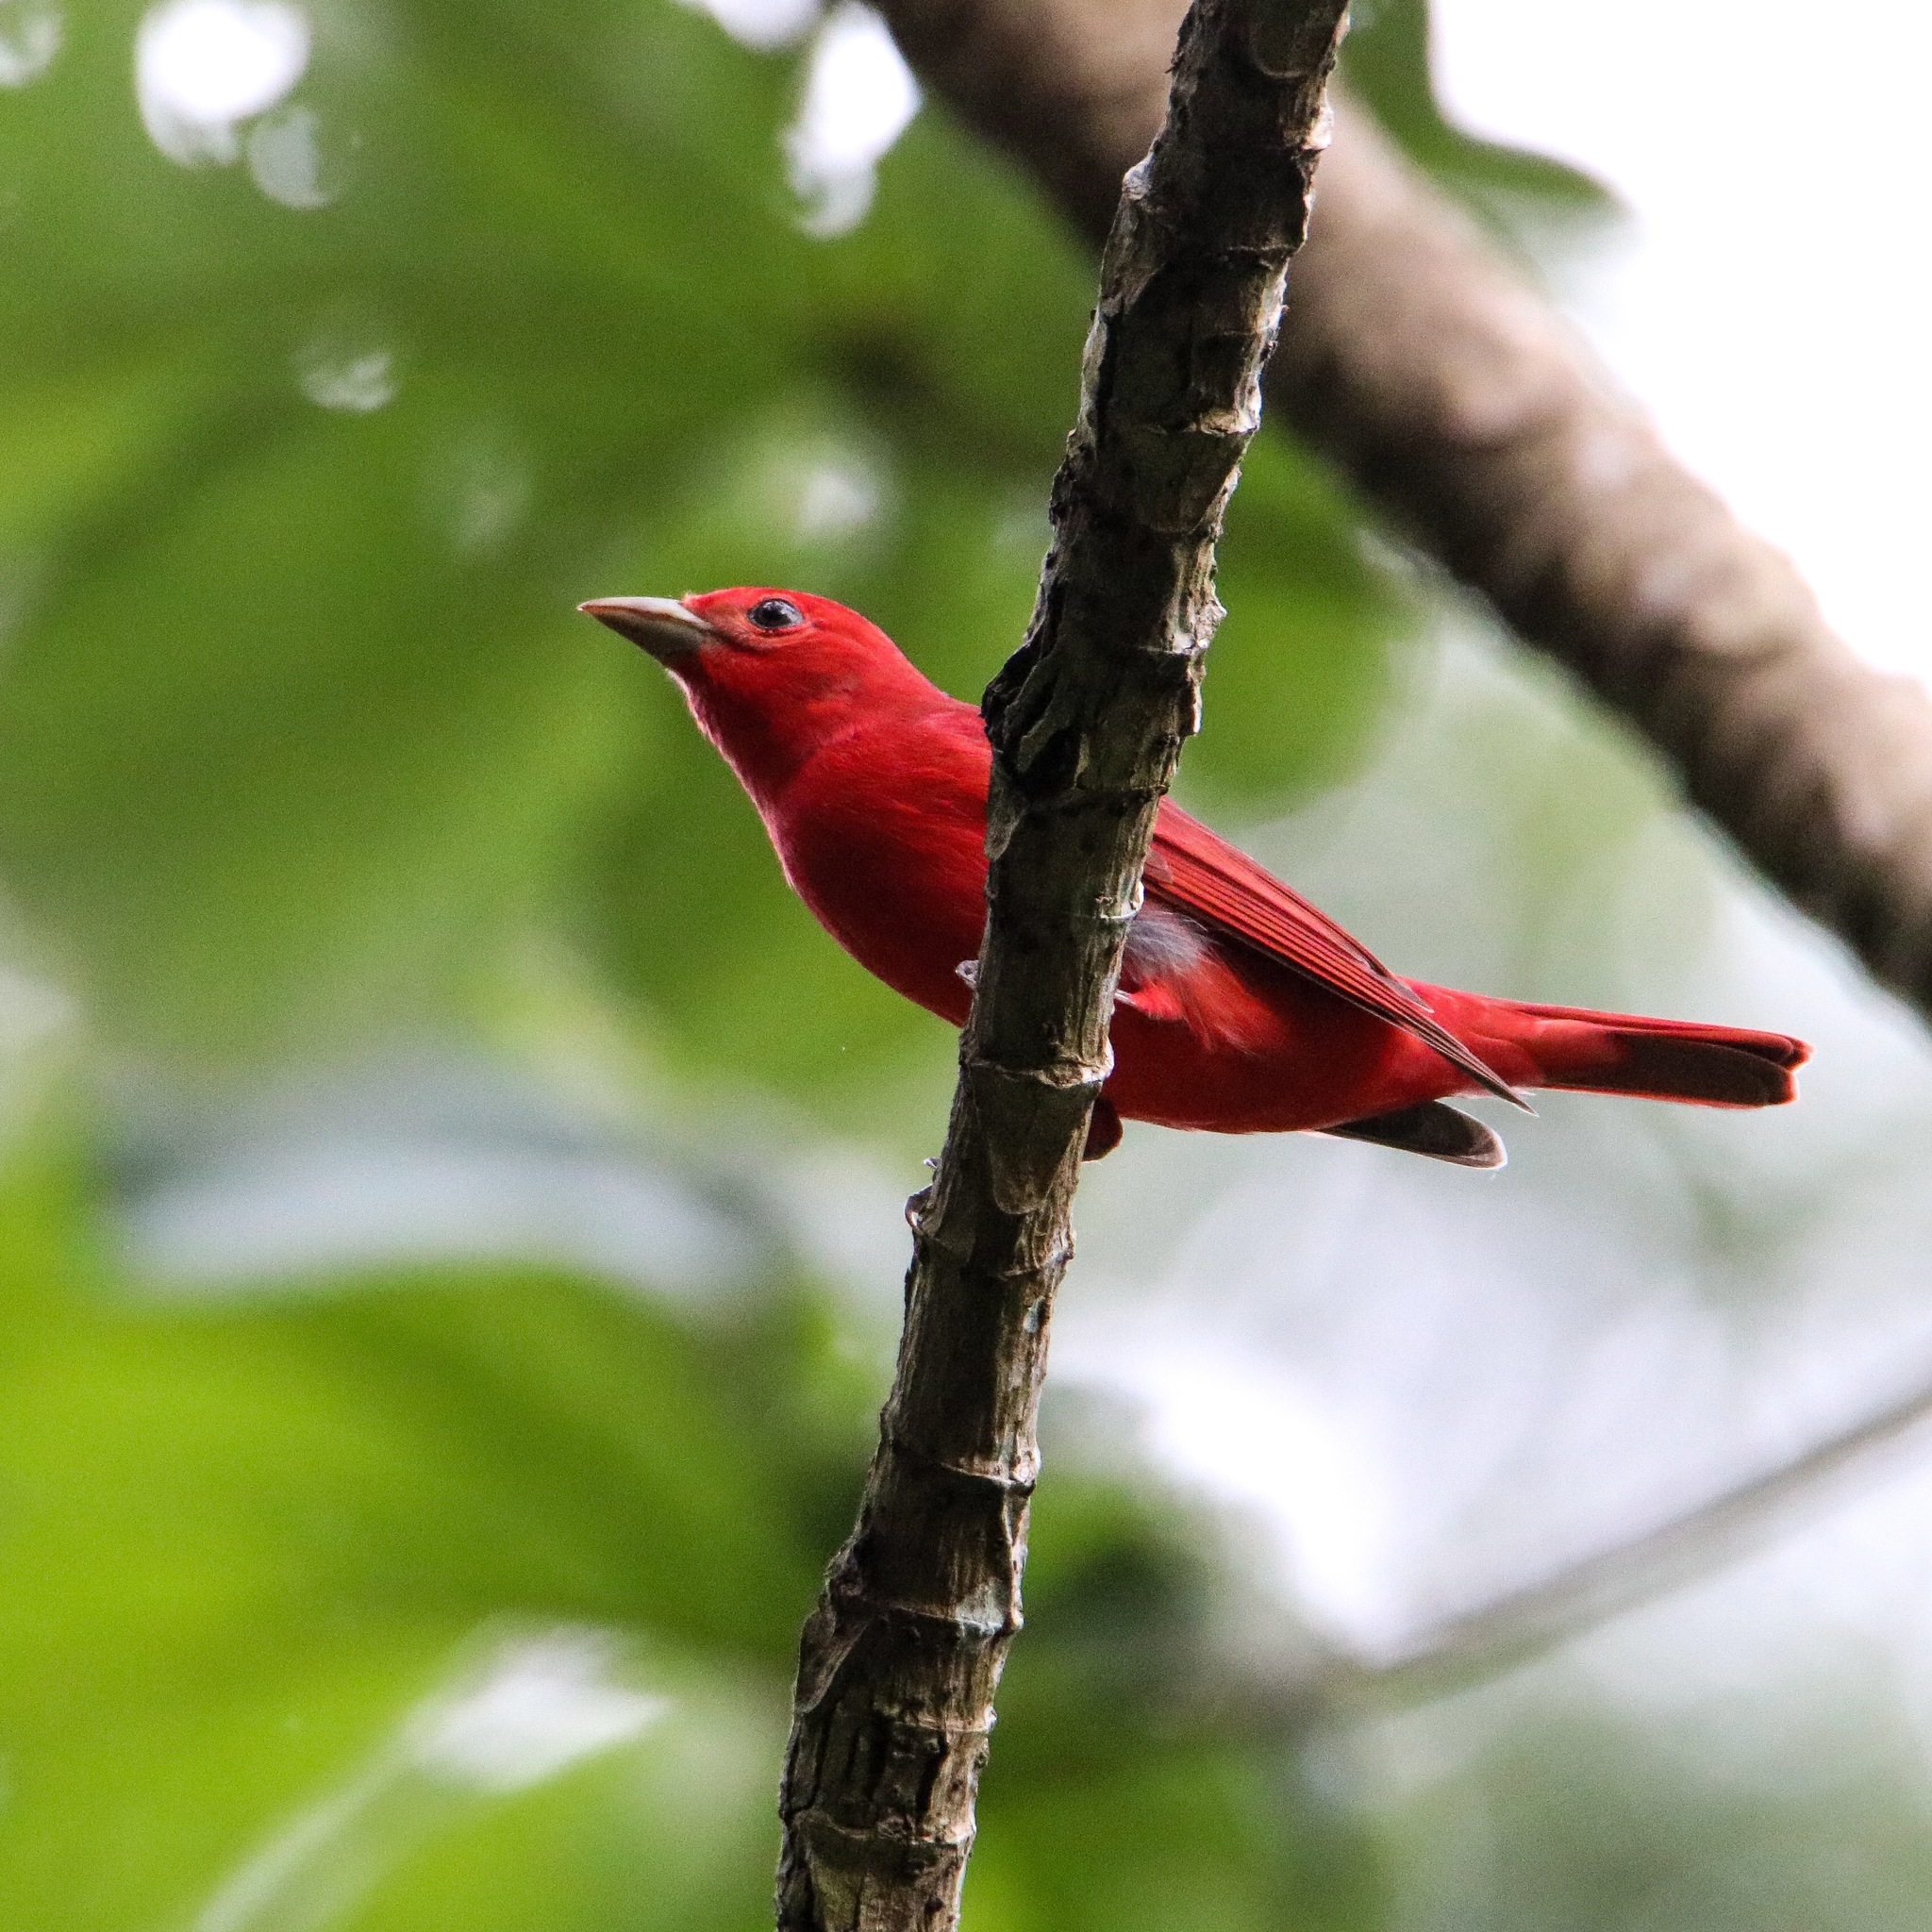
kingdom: Animalia
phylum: Chordata
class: Aves
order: Passeriformes
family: Cardinalidae
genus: Piranga
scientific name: Piranga rubra
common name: Summer tanager
